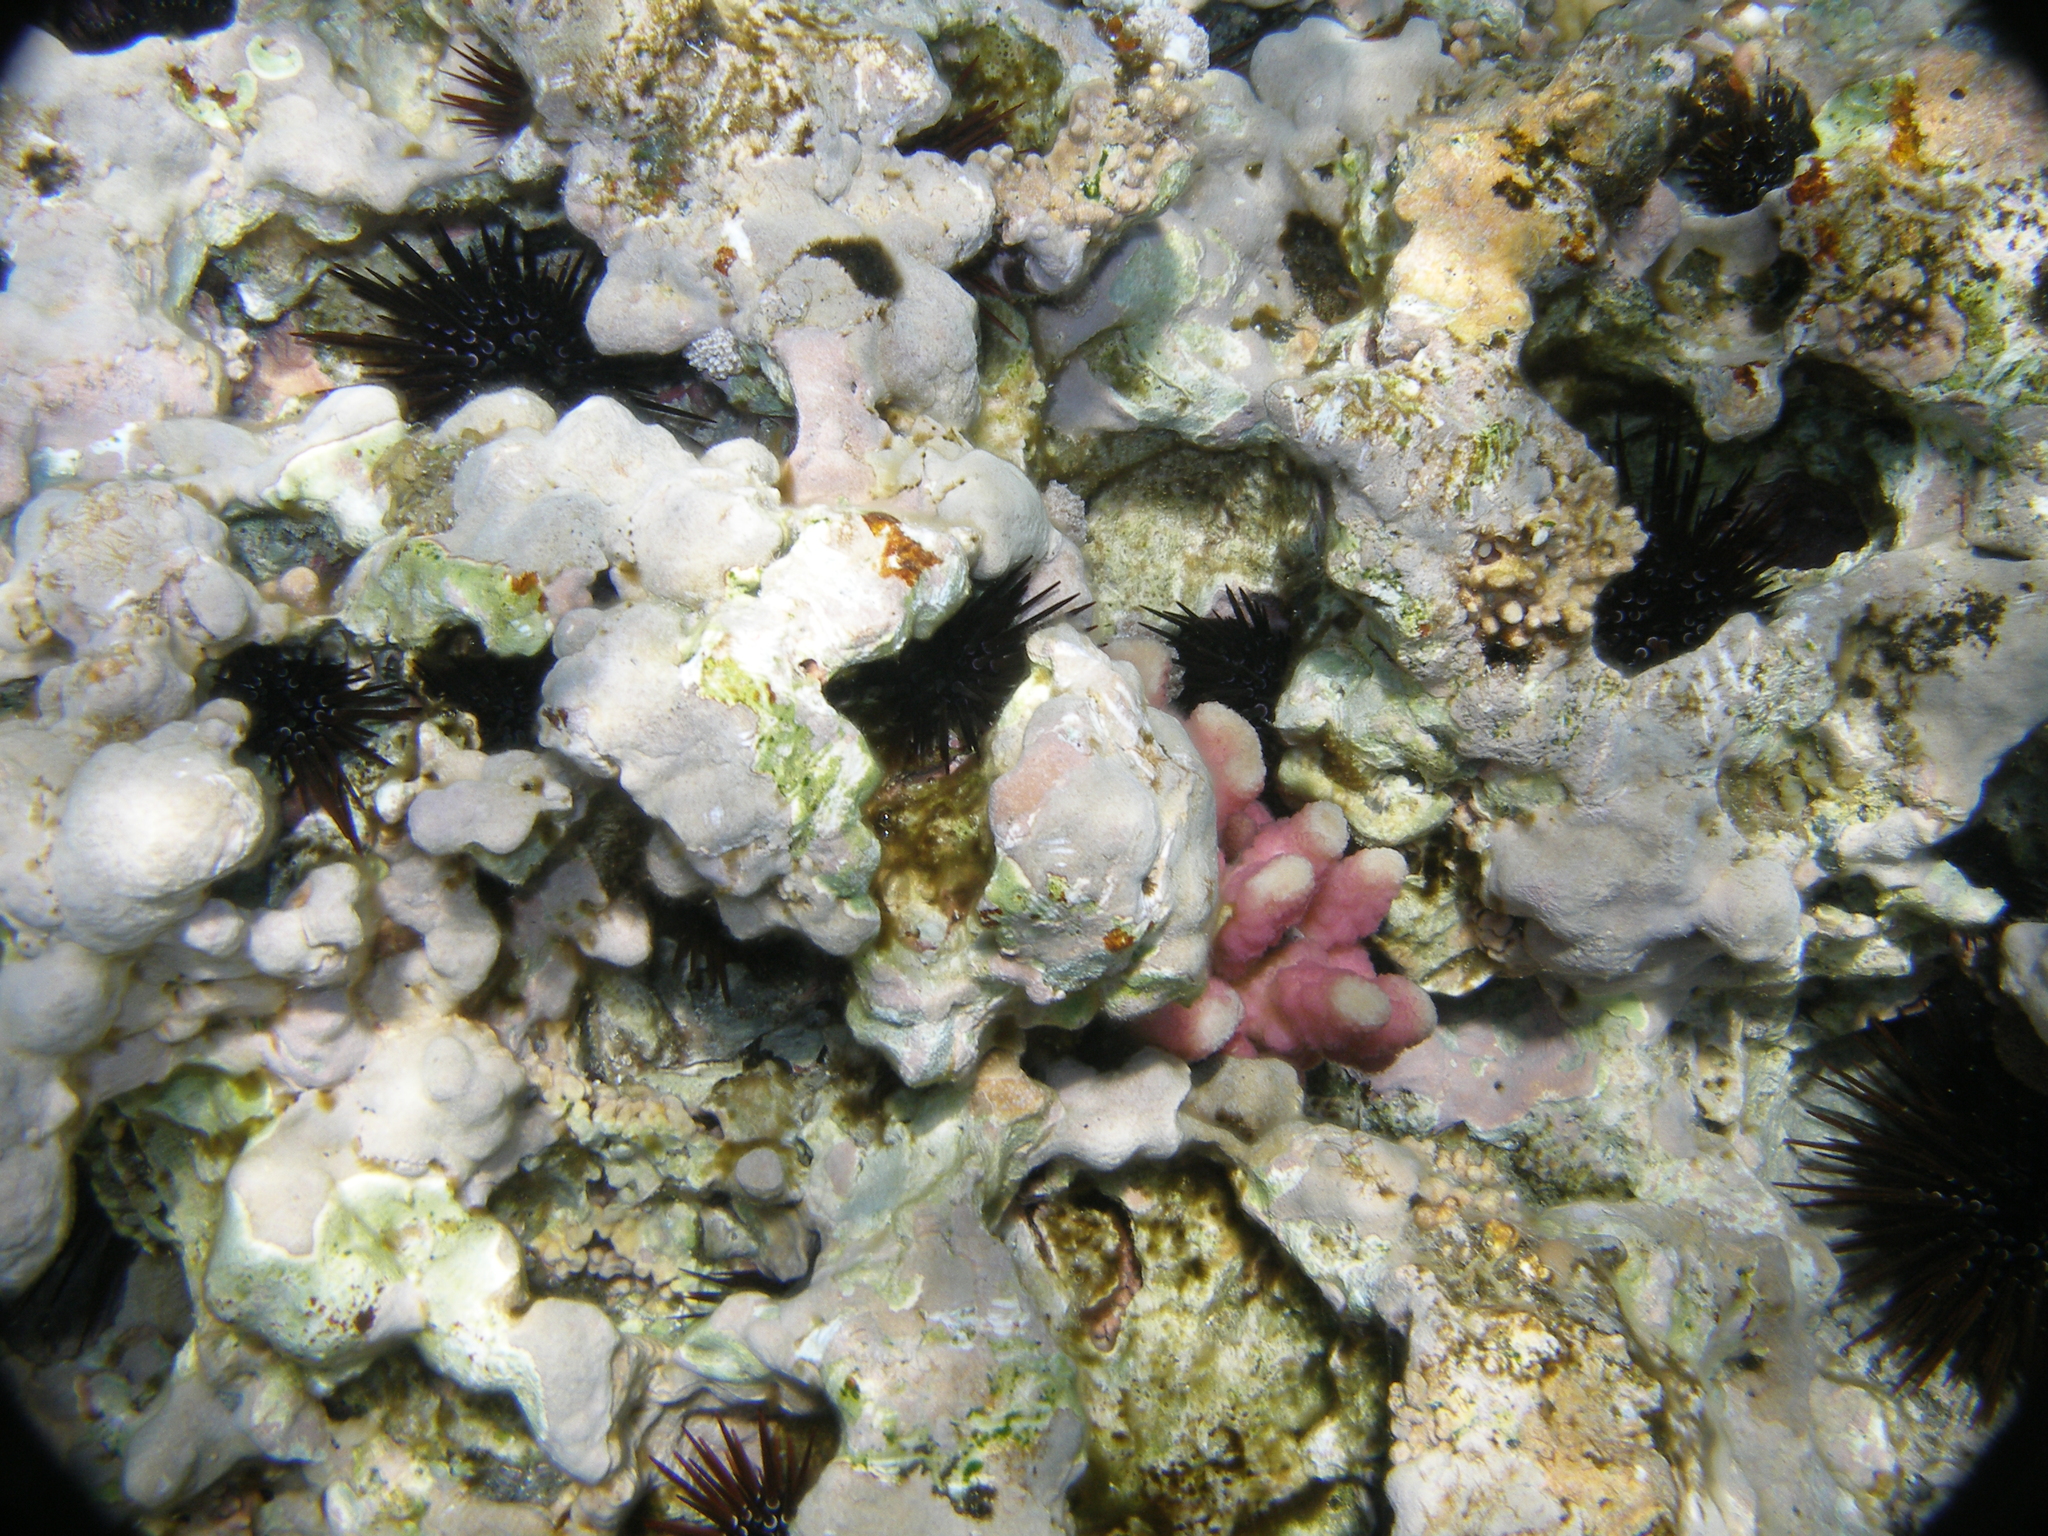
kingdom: Animalia
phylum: Echinodermata
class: Echinoidea
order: Camarodonta
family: Echinometridae
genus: Echinometra
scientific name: Echinometra mathaei
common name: Rock-boring urchin
